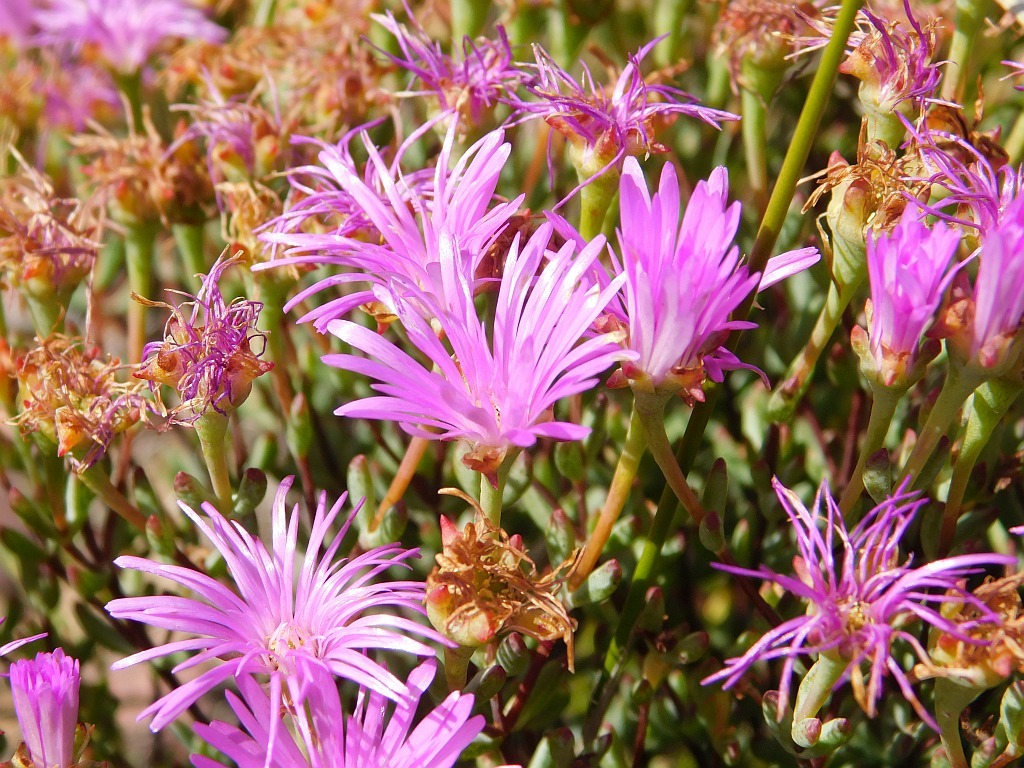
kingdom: Plantae
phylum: Tracheophyta
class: Magnoliopsida
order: Caryophyllales
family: Aizoaceae
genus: Lampranthus
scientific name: Lampranthus falcatus
